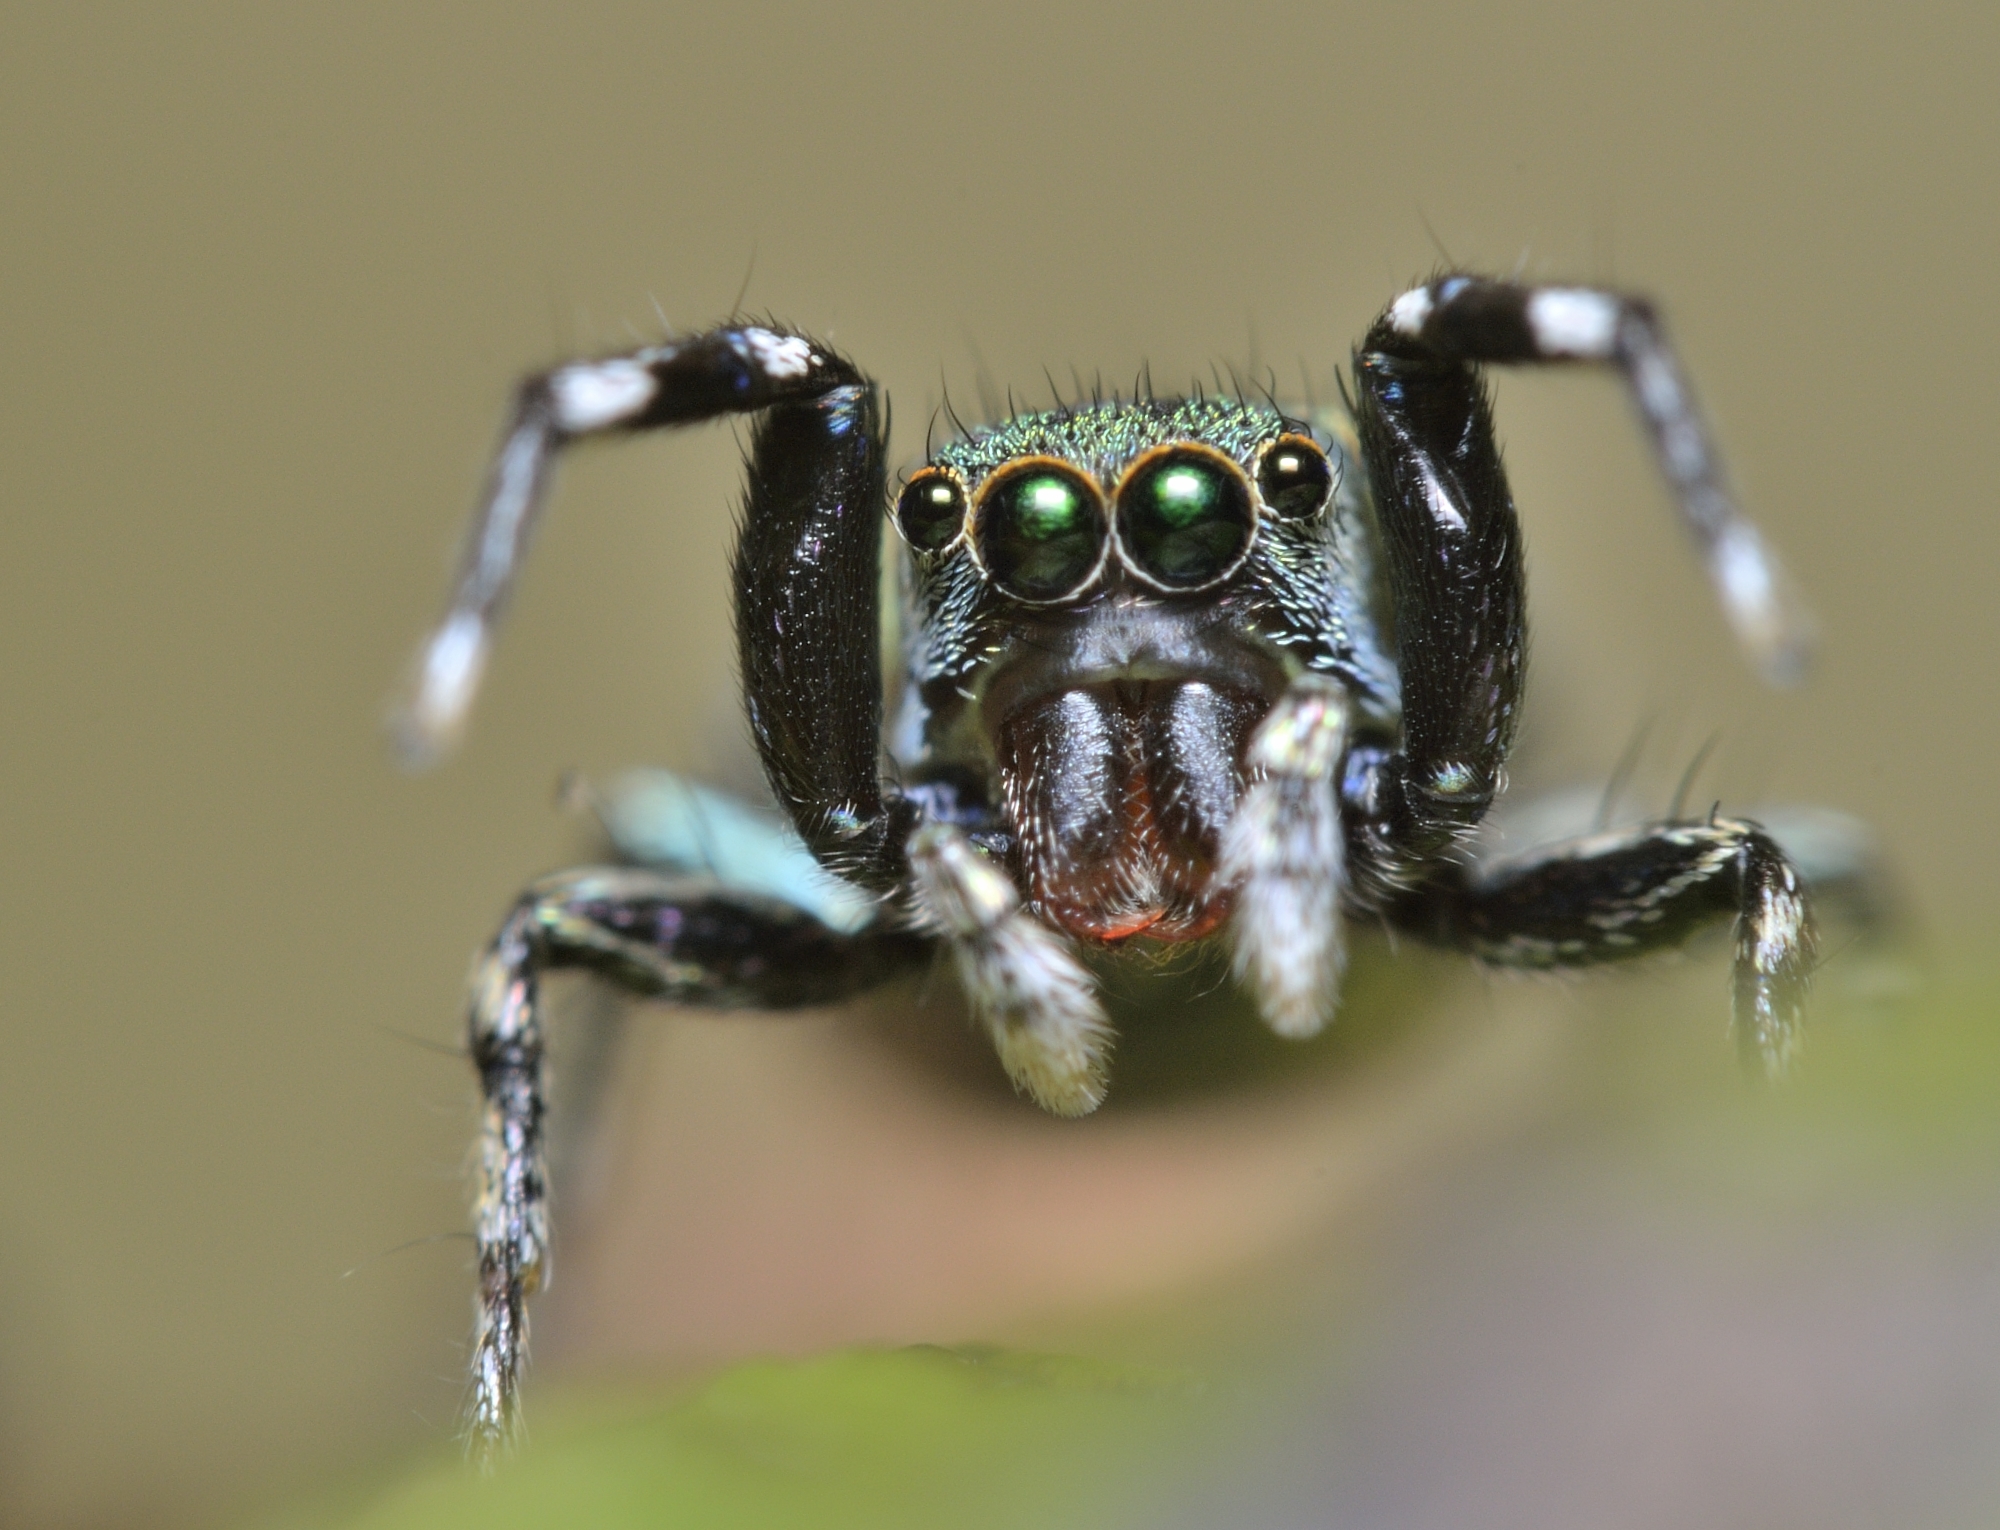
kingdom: Animalia
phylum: Arthropoda
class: Arachnida
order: Araneae
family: Salticidae
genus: Siler
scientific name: Siler semiglaucus
